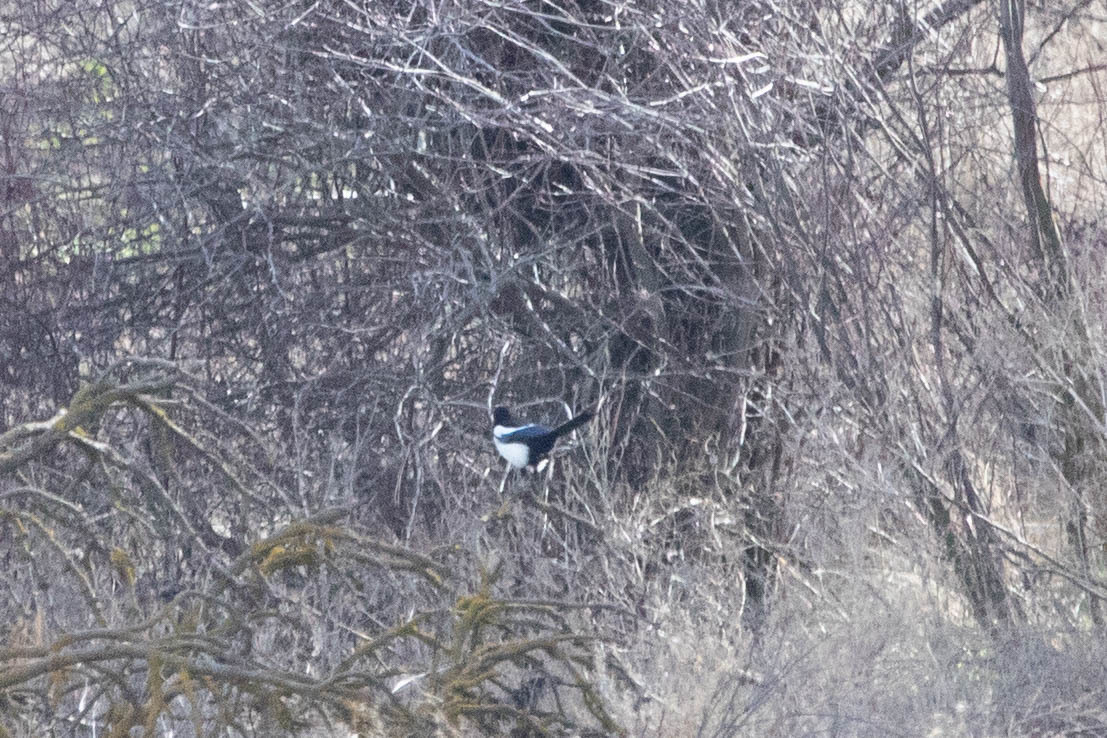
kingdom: Animalia
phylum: Chordata
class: Aves
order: Passeriformes
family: Corvidae
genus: Pica
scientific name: Pica hudsonia
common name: Black-billed magpie
